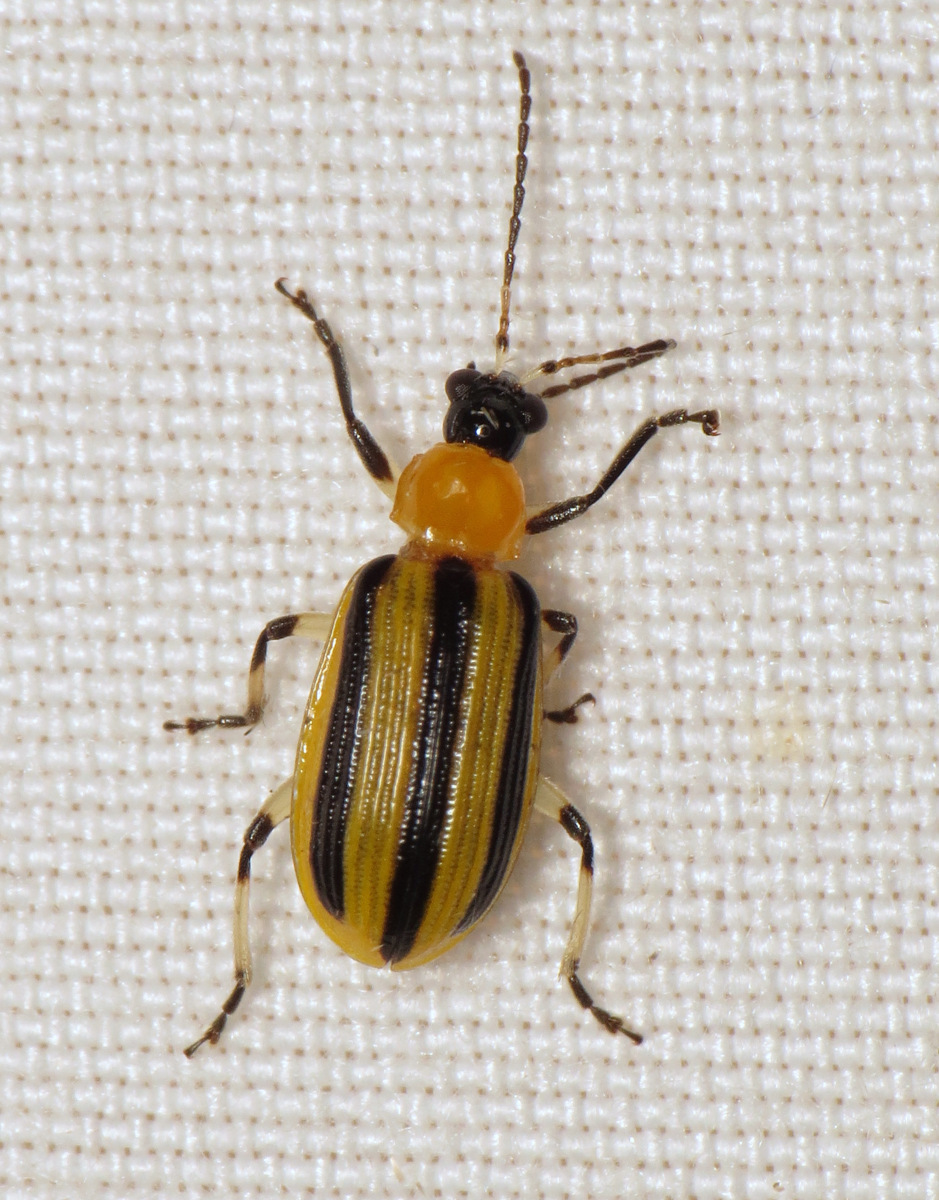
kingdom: Animalia
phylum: Arthropoda
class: Insecta
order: Coleoptera
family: Chrysomelidae
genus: Acalymma
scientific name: Acalymma vittatum
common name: Striped cucumber beetle
